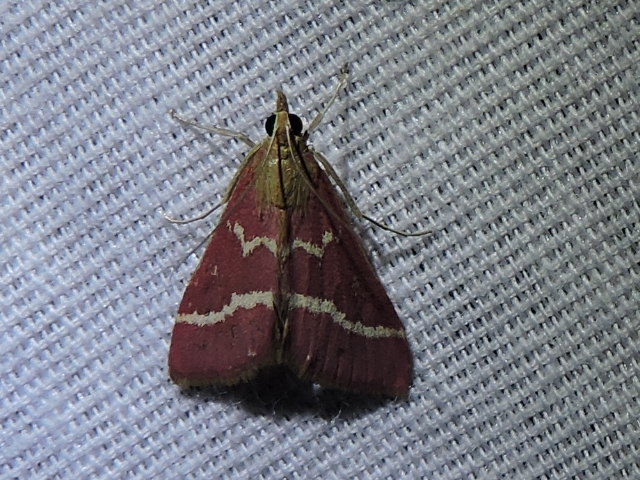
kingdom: Animalia
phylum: Arthropoda
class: Insecta
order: Lepidoptera
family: Crambidae
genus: Pyrausta
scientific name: Pyrausta volupialis
